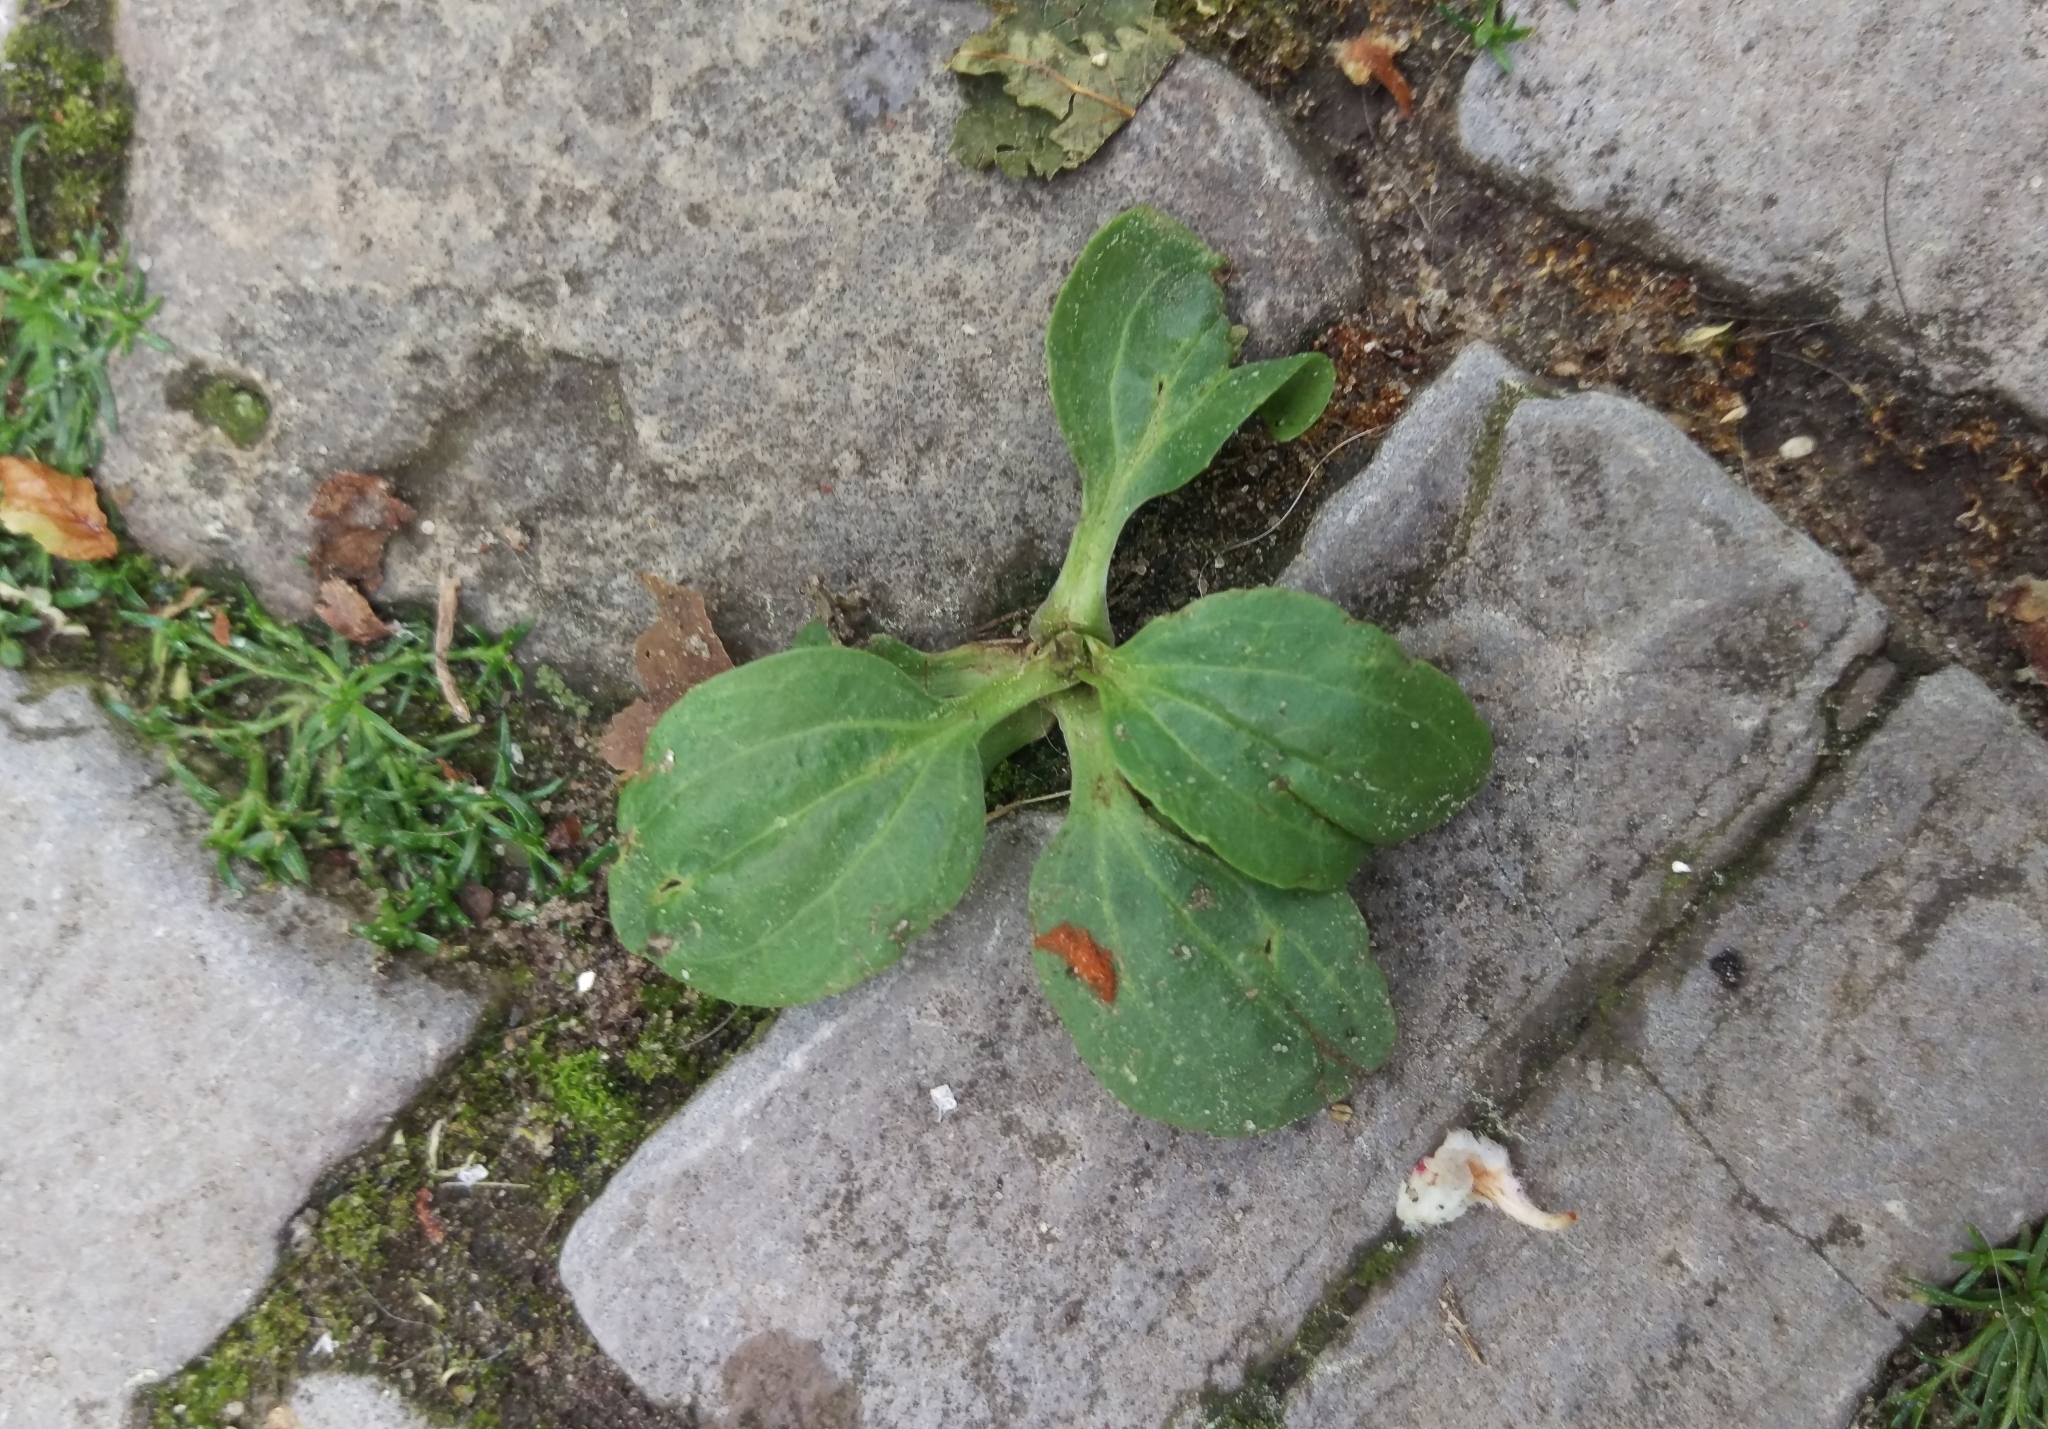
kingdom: Plantae
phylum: Tracheophyta
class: Magnoliopsida
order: Lamiales
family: Plantaginaceae
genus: Plantago
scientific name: Plantago major
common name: Common plantain
